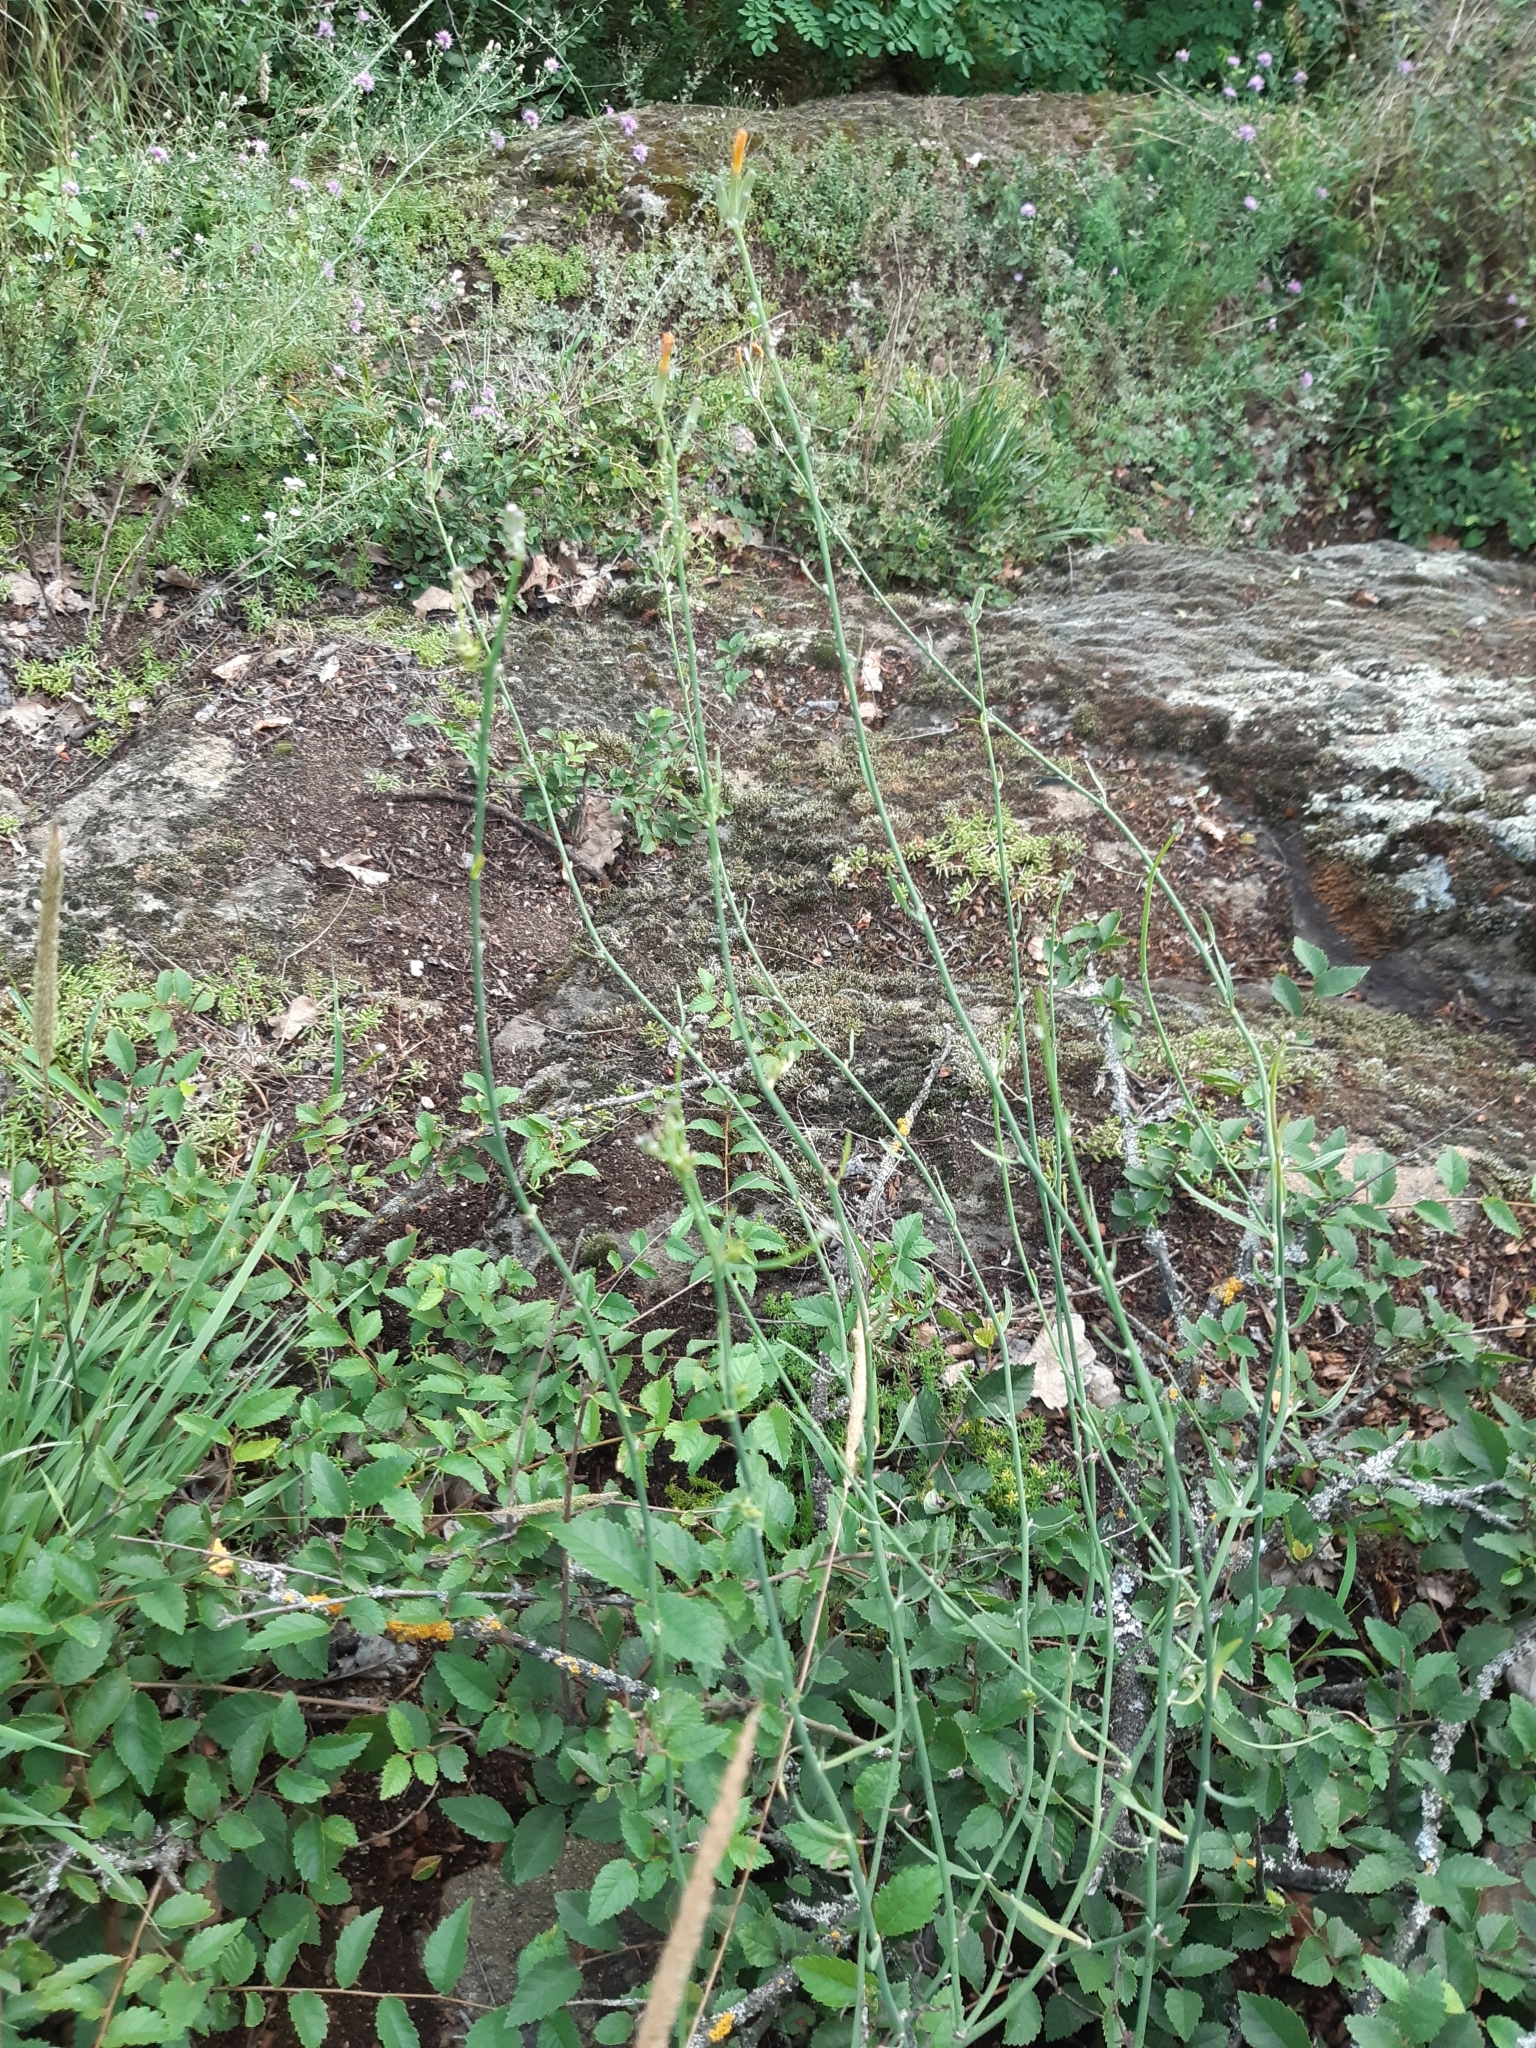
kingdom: Plantae
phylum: Tracheophyta
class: Magnoliopsida
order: Asterales
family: Asteraceae
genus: Chondrilla
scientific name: Chondrilla juncea
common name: Skeleton weed
